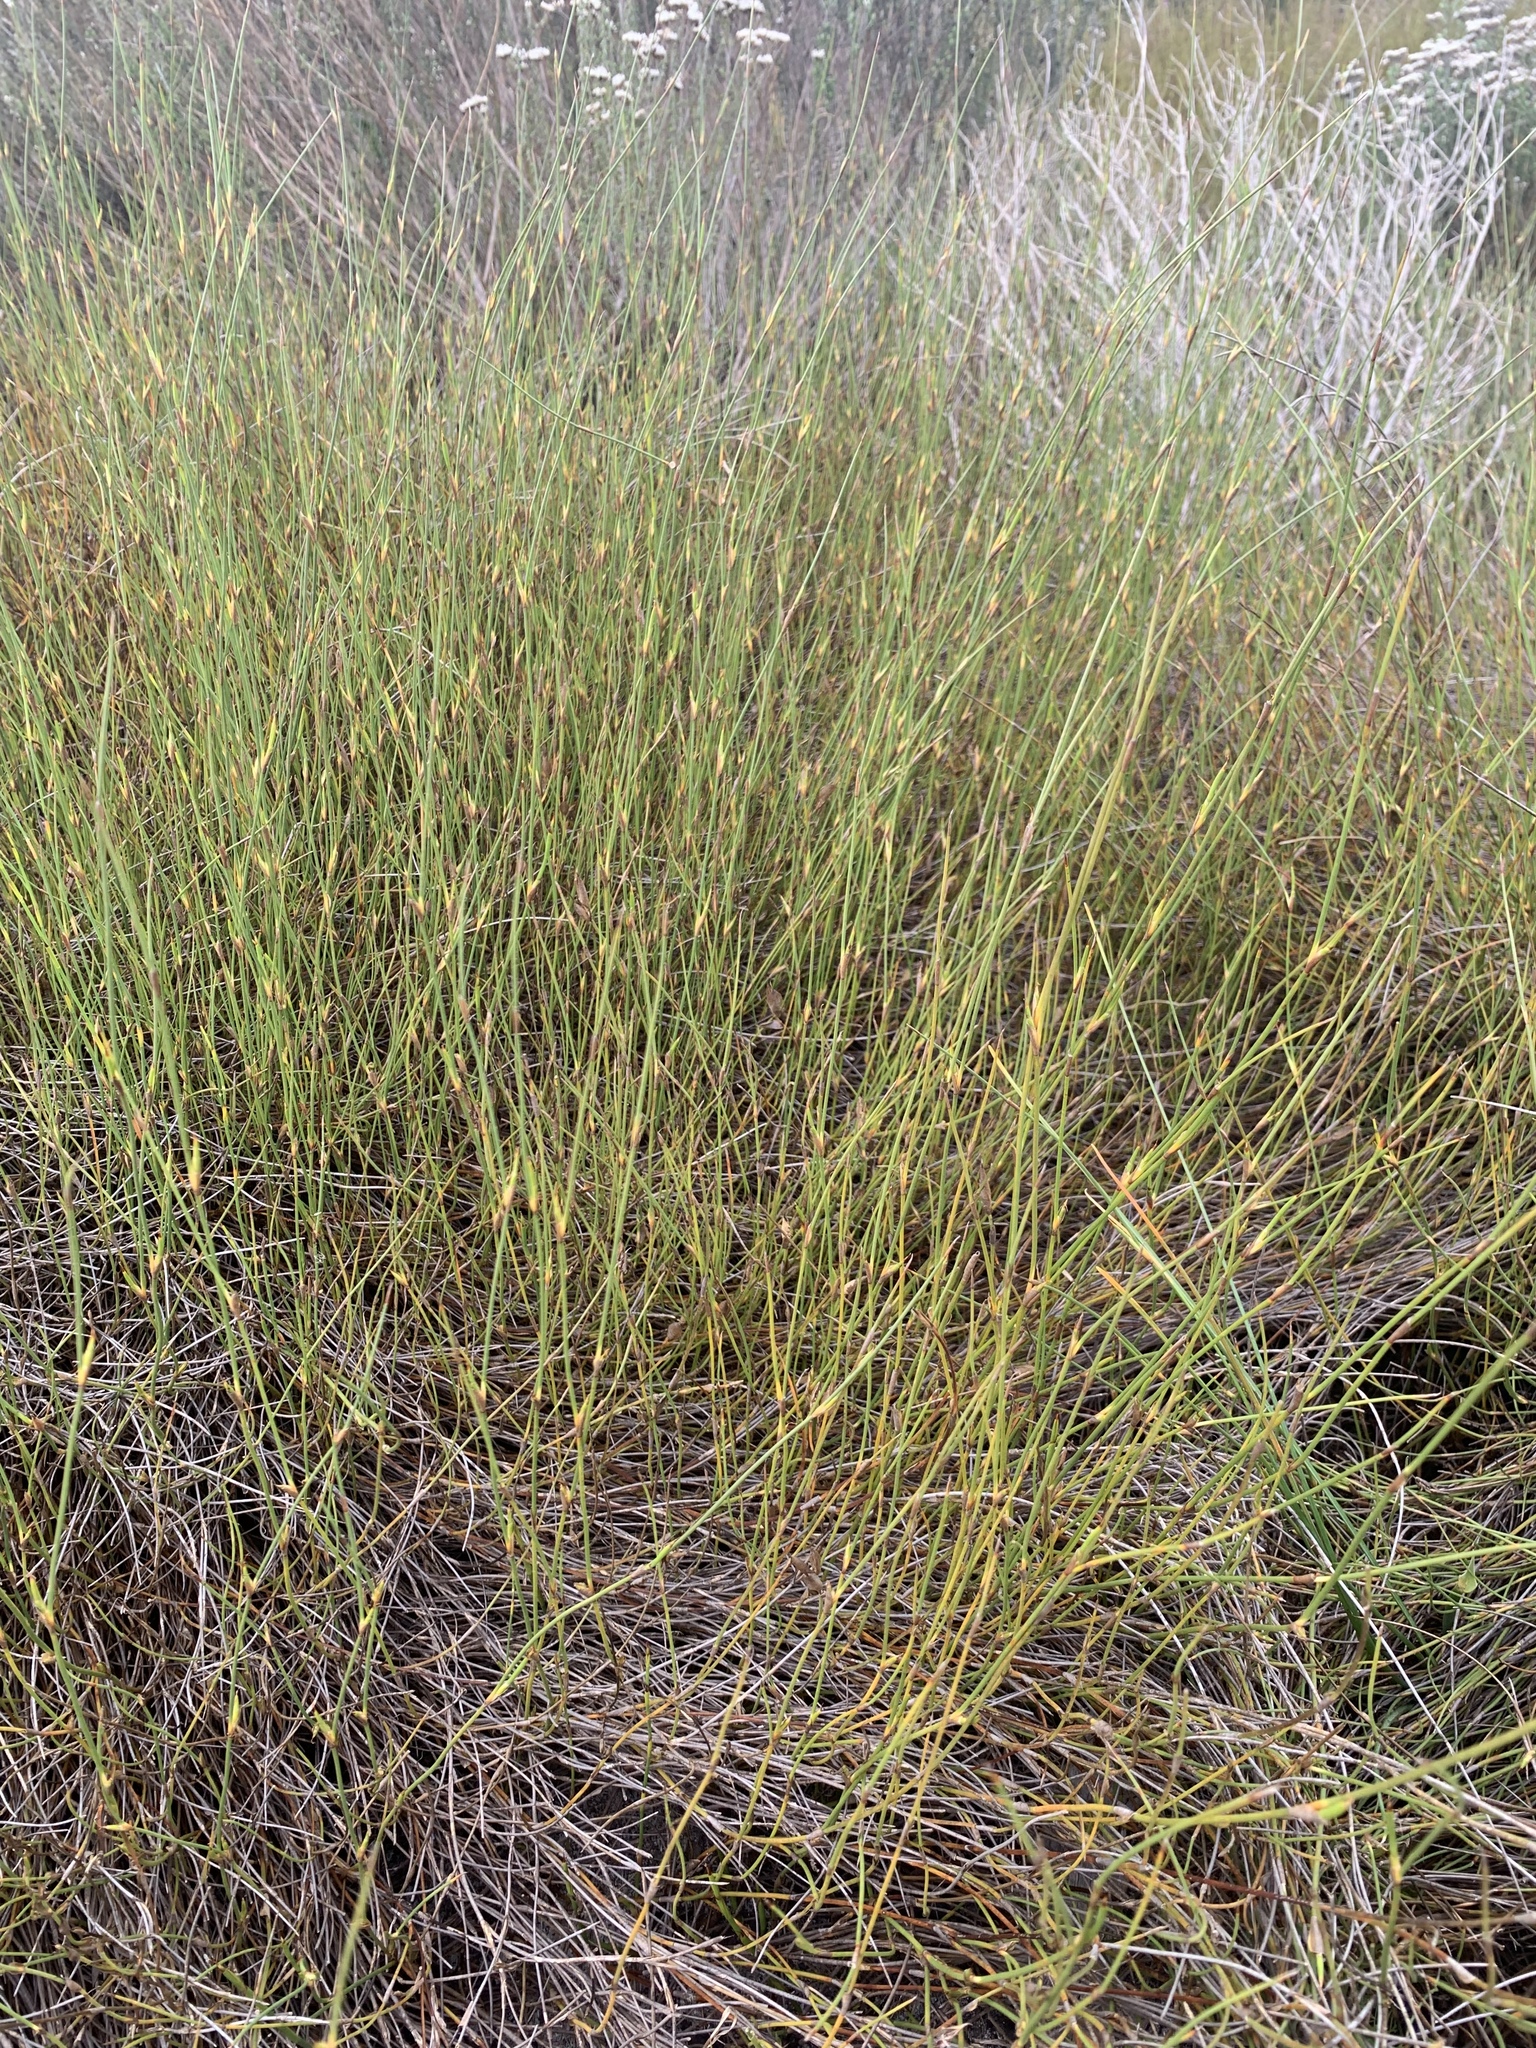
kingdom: Plantae
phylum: Tracheophyta
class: Liliopsida
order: Poales
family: Restionaceae
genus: Willdenowia
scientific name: Willdenowia sulcata
